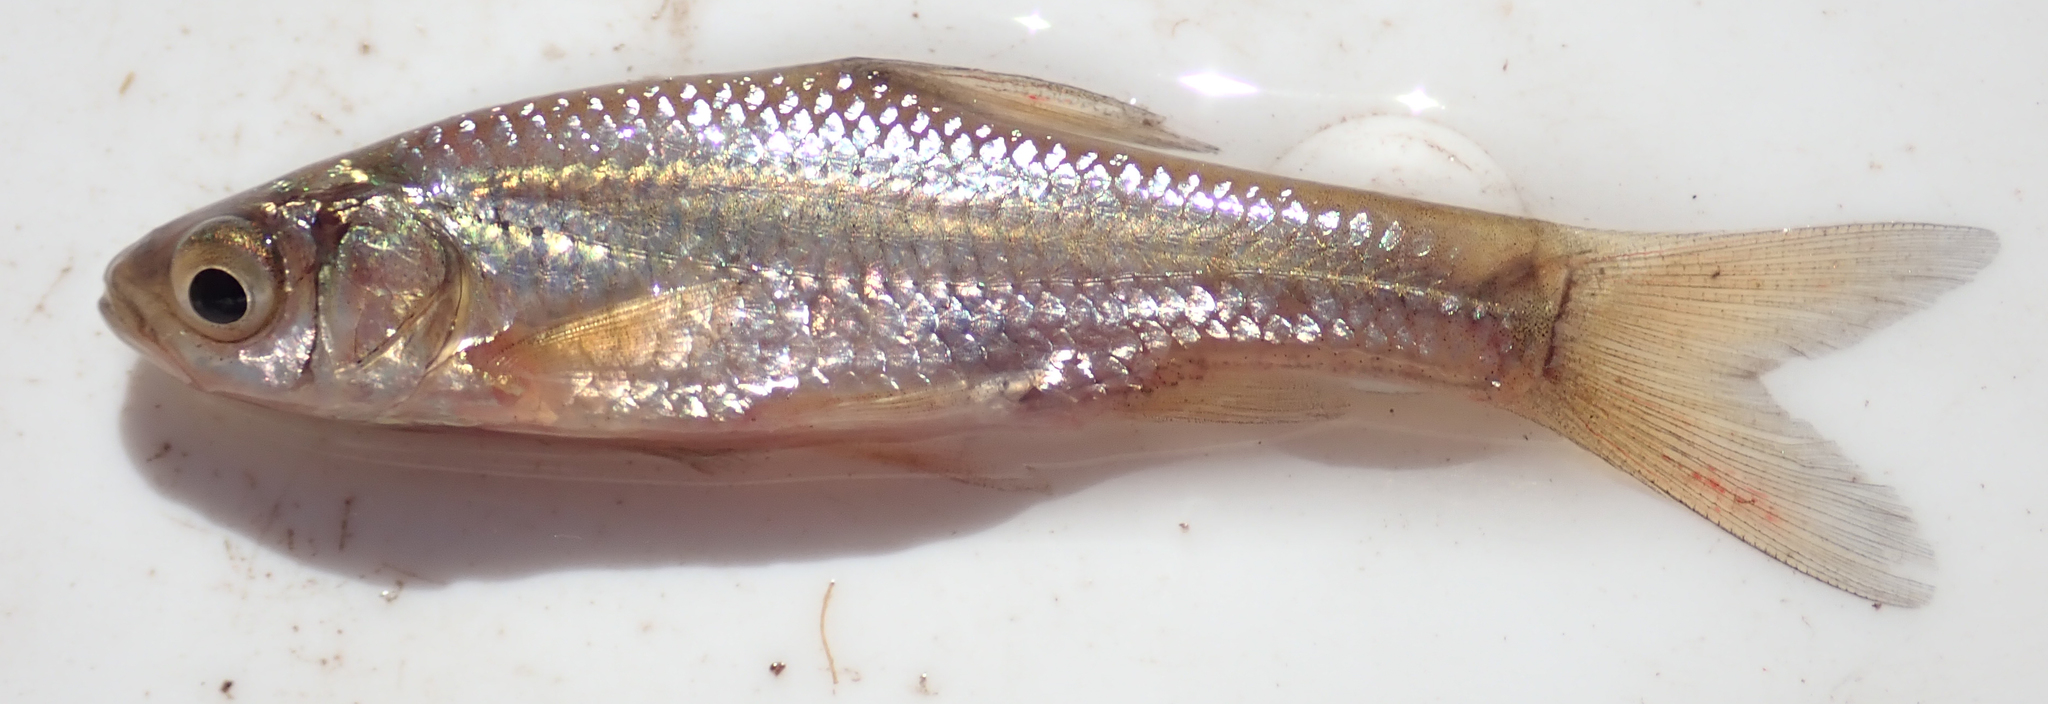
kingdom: Animalia
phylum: Chordata
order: Cypriniformes
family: Cyprinidae
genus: Enteromius
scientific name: Enteromius paludinosus
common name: Straightfin barb
